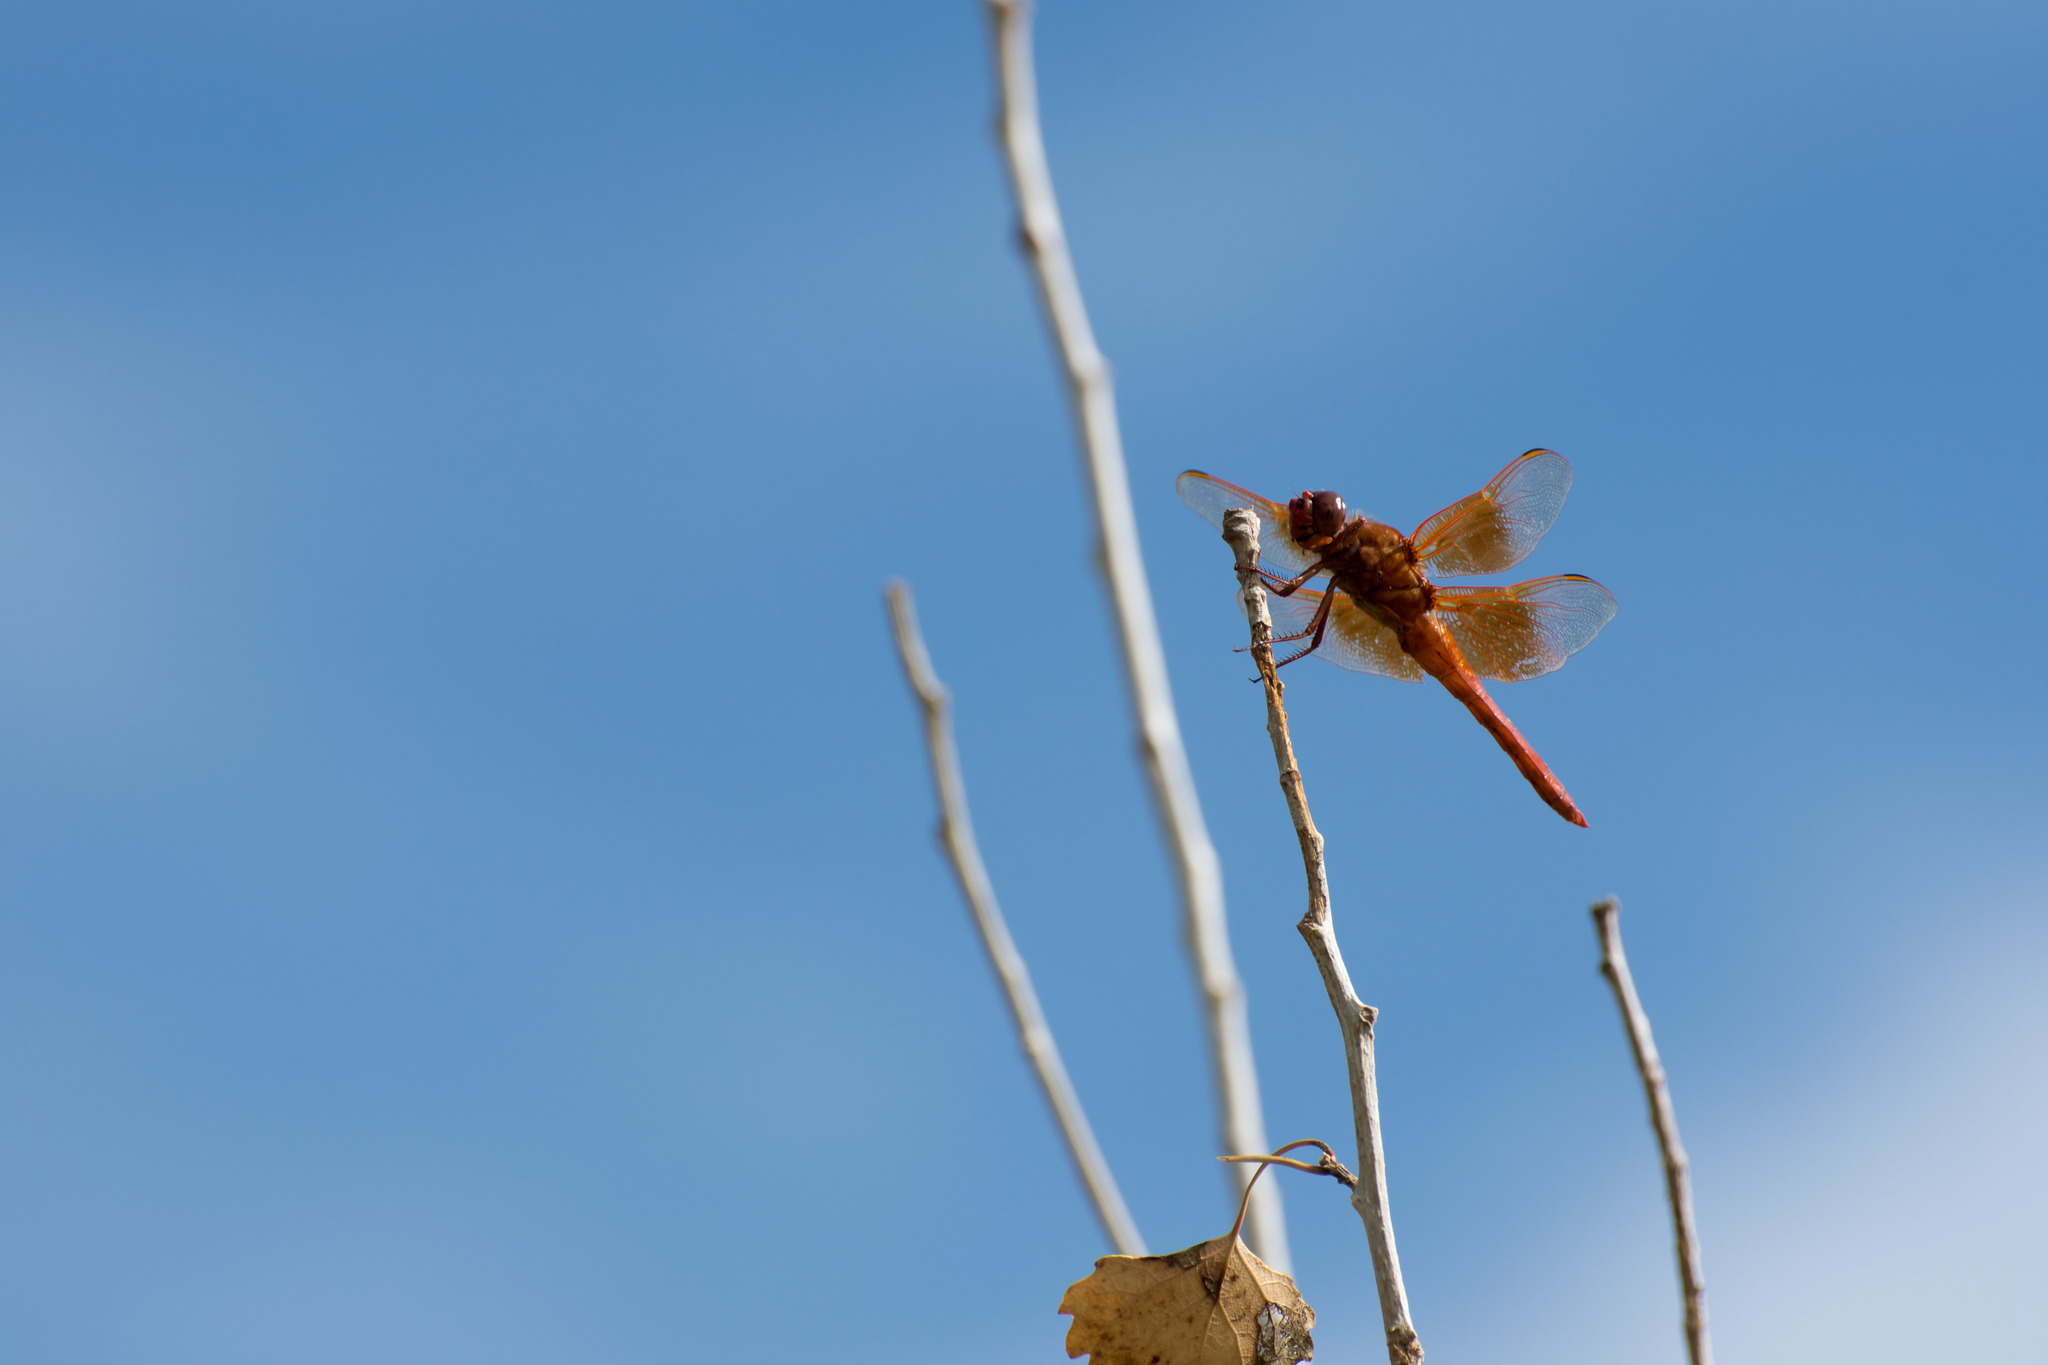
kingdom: Animalia
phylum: Arthropoda
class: Insecta
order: Odonata
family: Libellulidae
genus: Libellula
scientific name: Libellula saturata
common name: Flame skimmer
